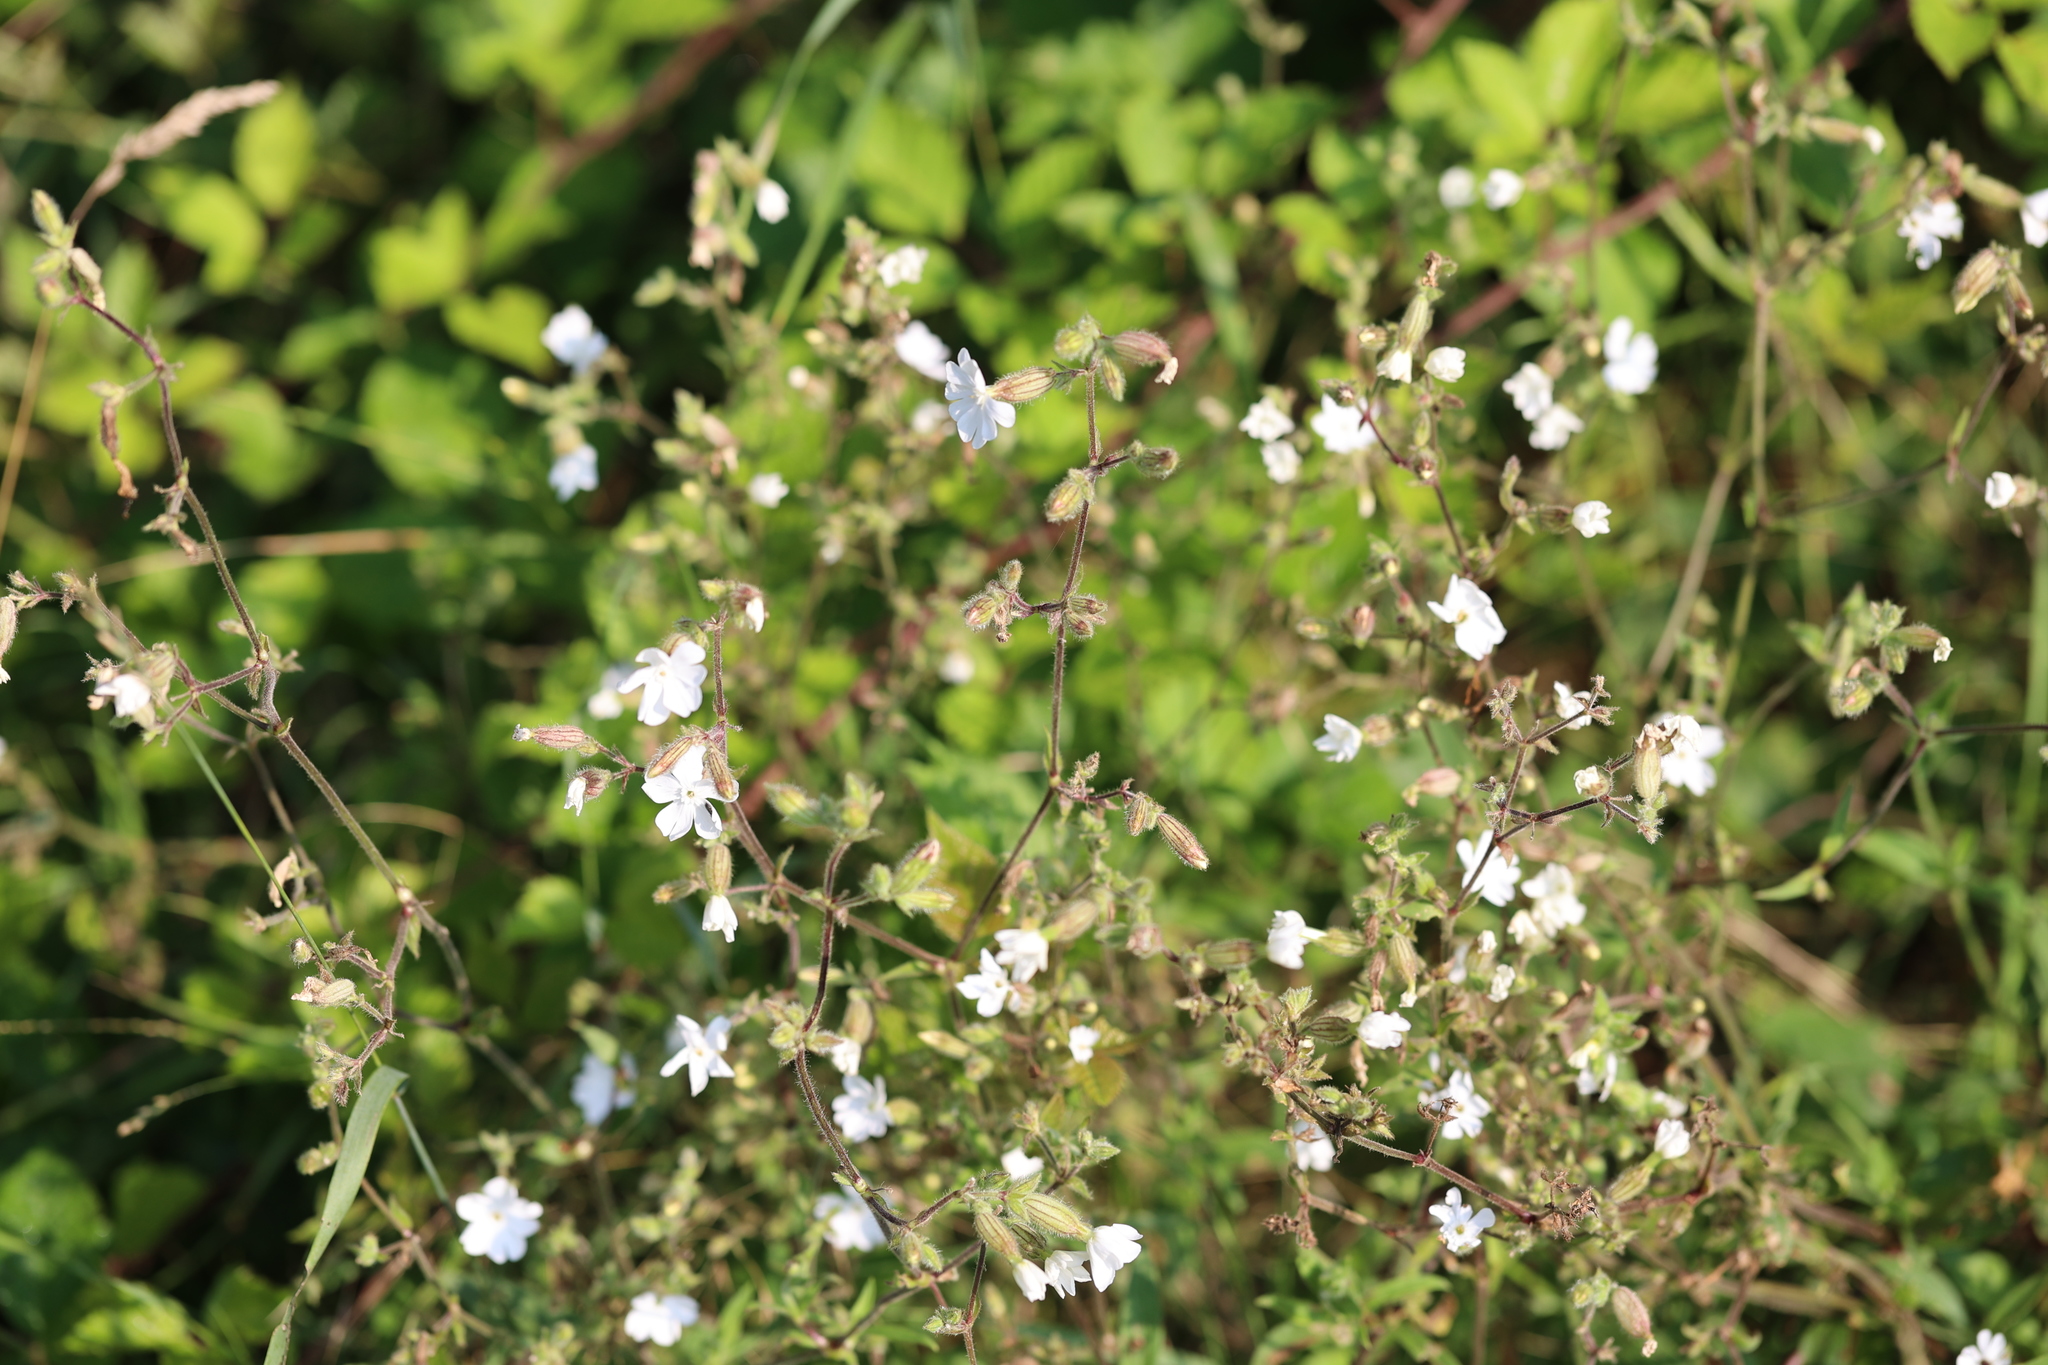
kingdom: Plantae
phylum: Tracheophyta
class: Magnoliopsida
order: Caryophyllales
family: Caryophyllaceae
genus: Silene
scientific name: Silene latifolia
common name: White campion
